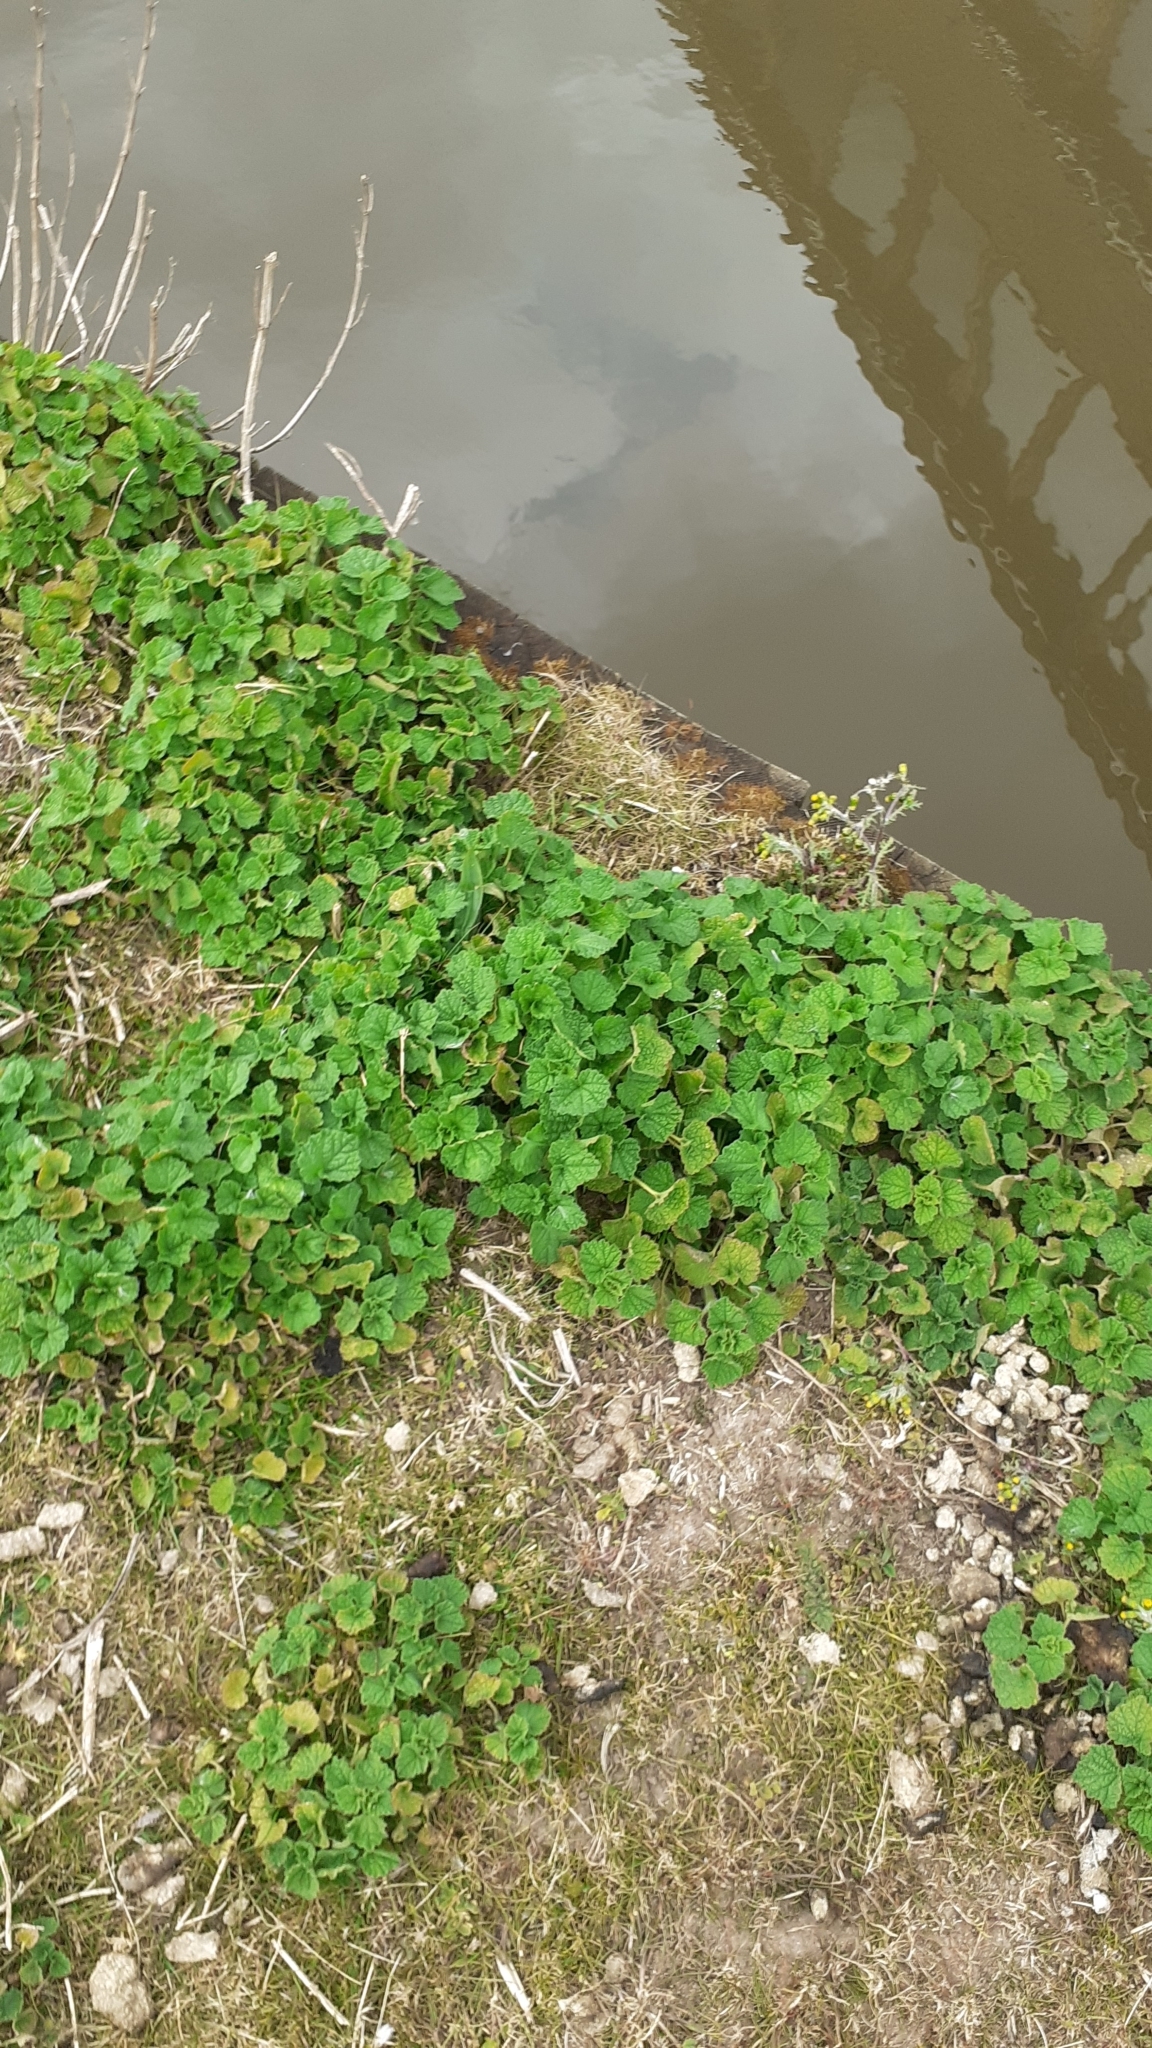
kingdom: Plantae
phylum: Tracheophyta
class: Magnoliopsida
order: Lamiales
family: Lamiaceae
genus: Ballota
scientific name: Ballota nigra
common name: Black horehound
